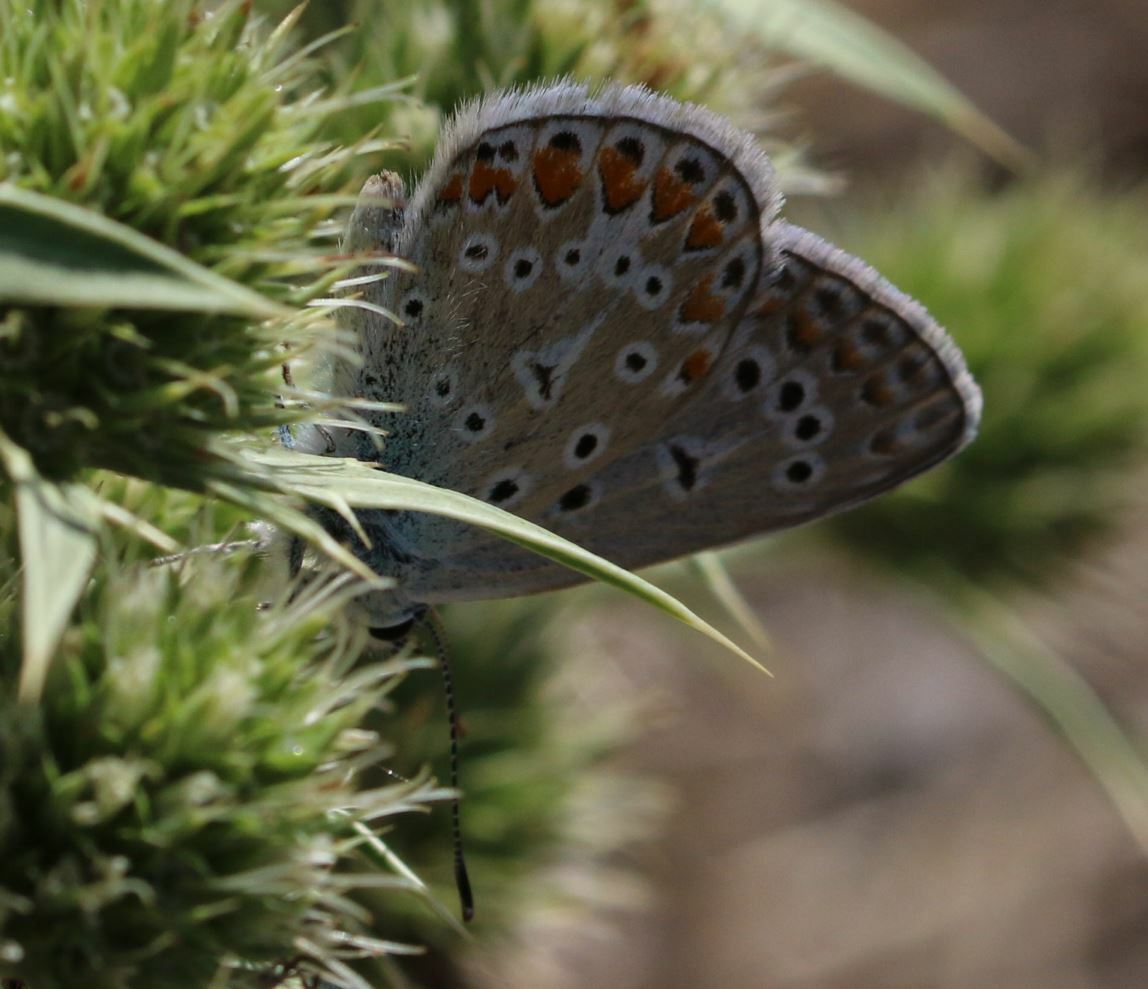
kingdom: Animalia
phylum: Arthropoda
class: Insecta
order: Lepidoptera
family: Lycaenidae
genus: Polyommatus
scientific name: Polyommatus icarus
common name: Common blue
